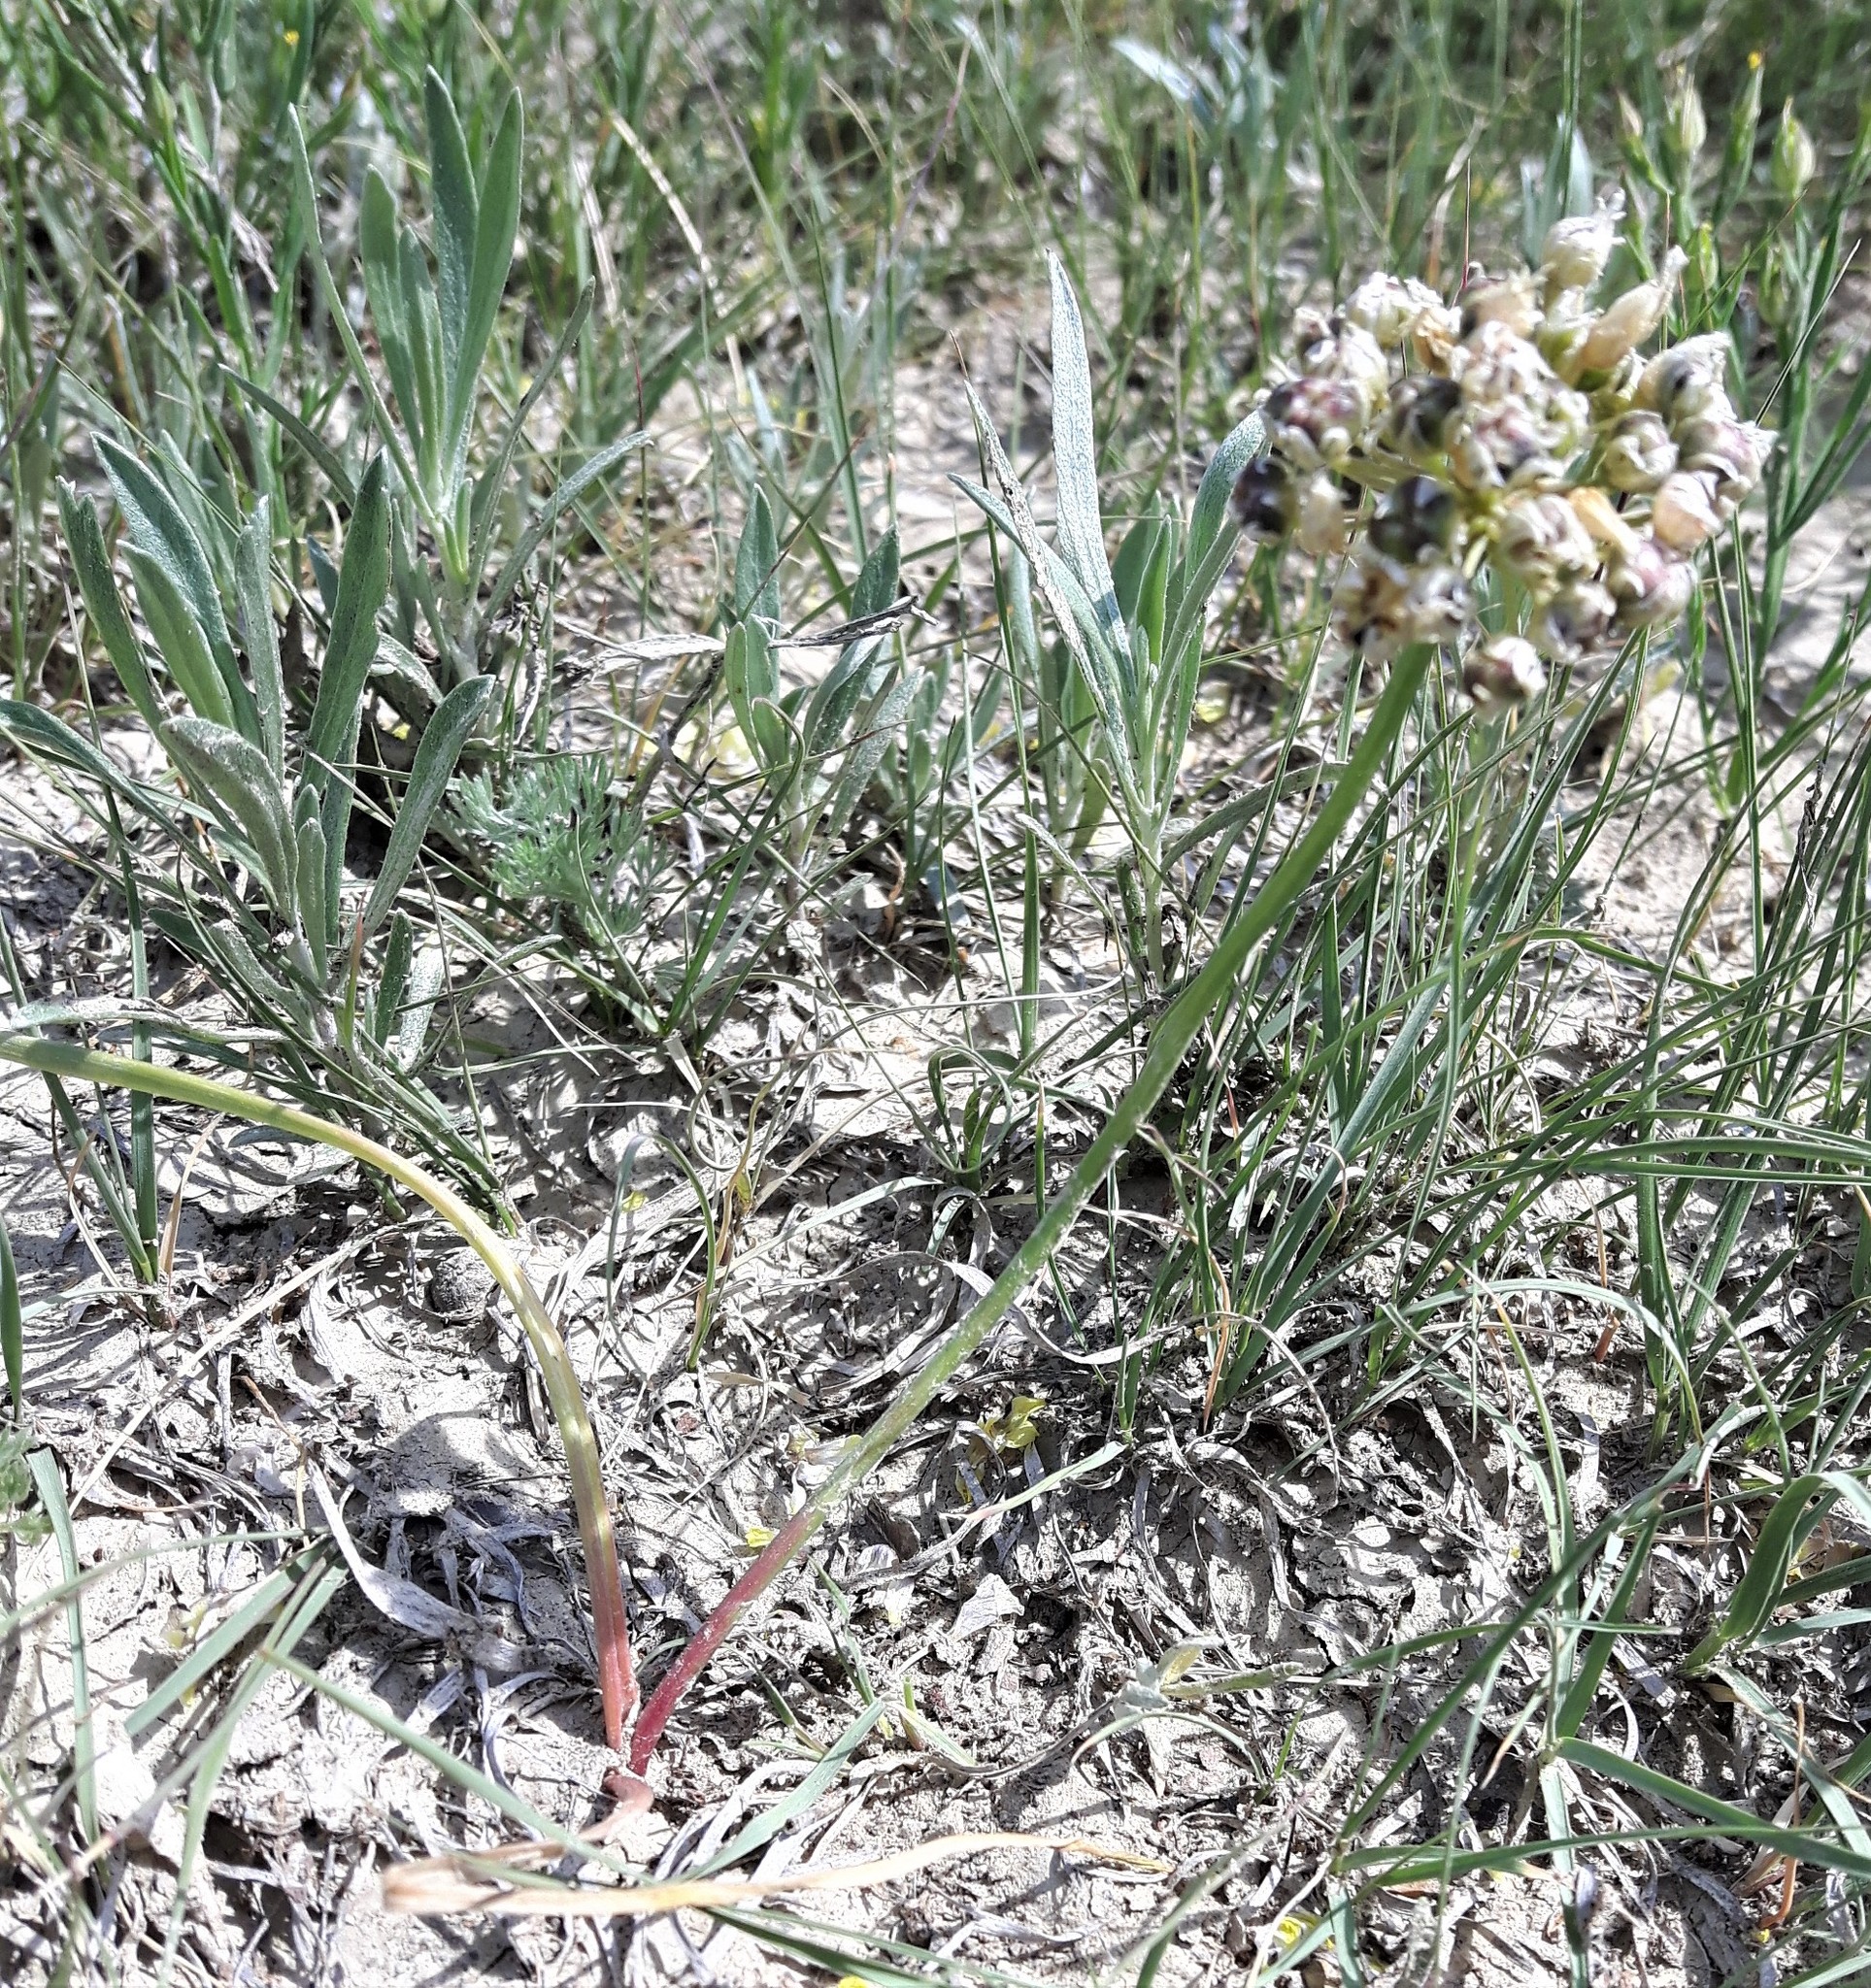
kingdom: Plantae
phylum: Tracheophyta
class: Liliopsida
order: Asparagales
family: Amaryllidaceae
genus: Allium
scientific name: Allium textile
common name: Prairie onion
